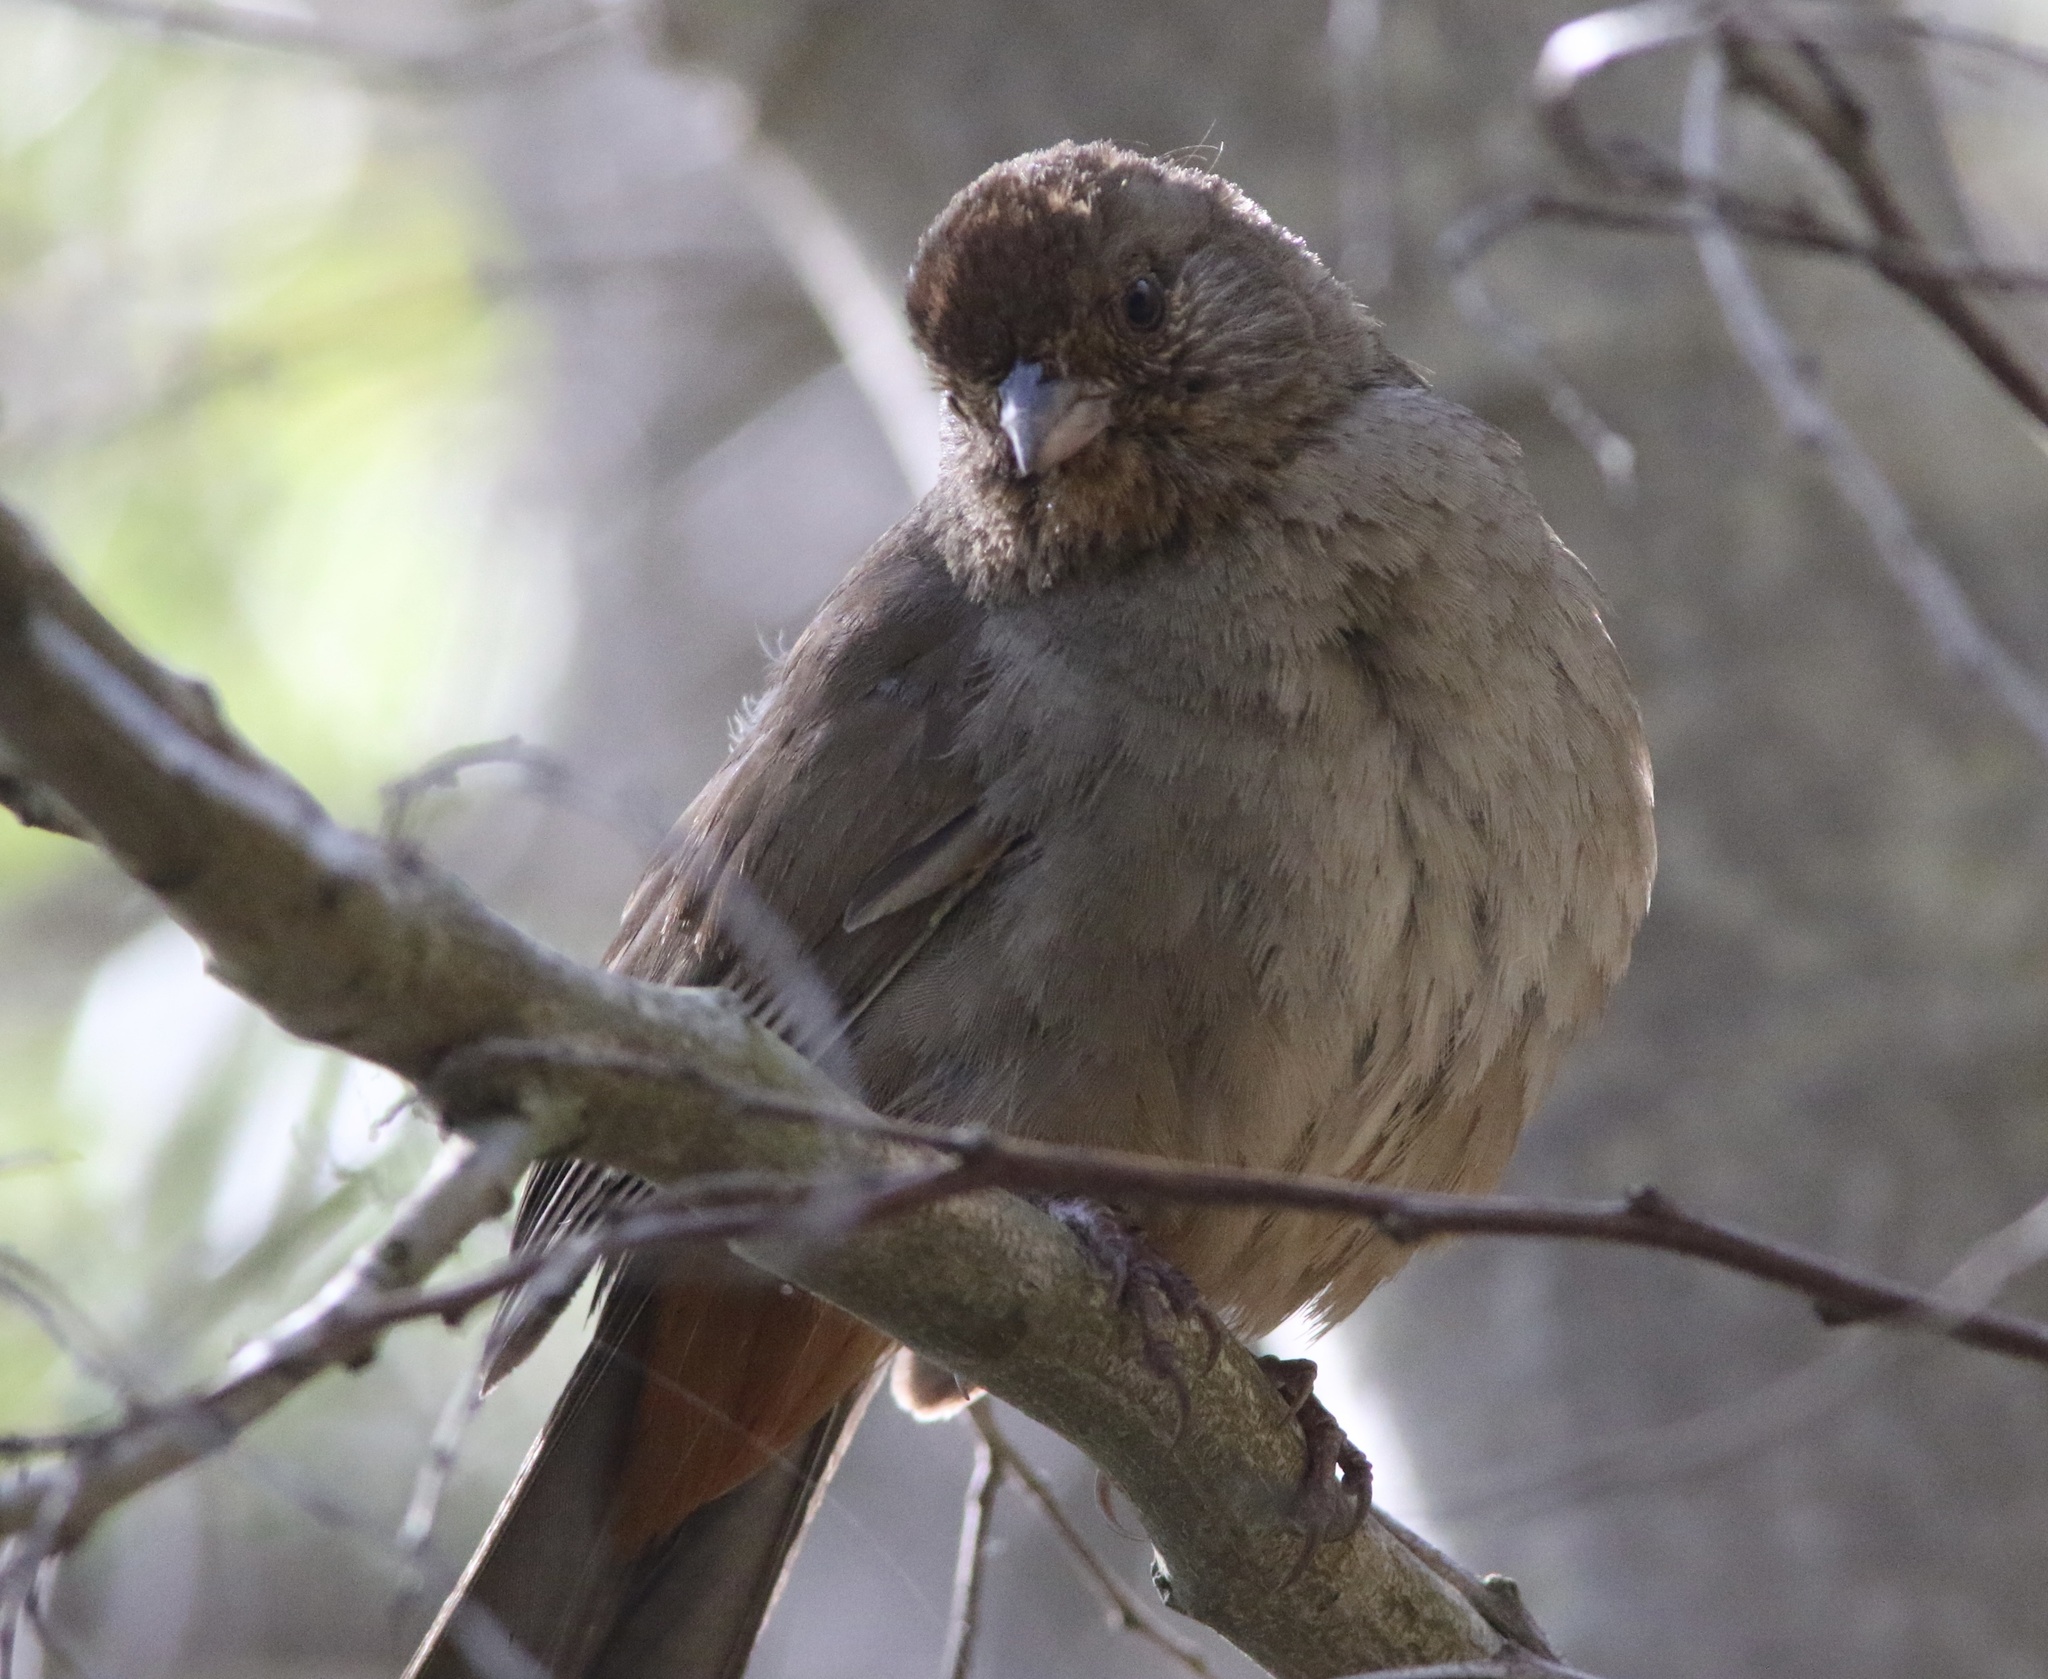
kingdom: Animalia
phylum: Chordata
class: Aves
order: Passeriformes
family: Passerellidae
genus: Melozone
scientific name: Melozone crissalis
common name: California towhee
